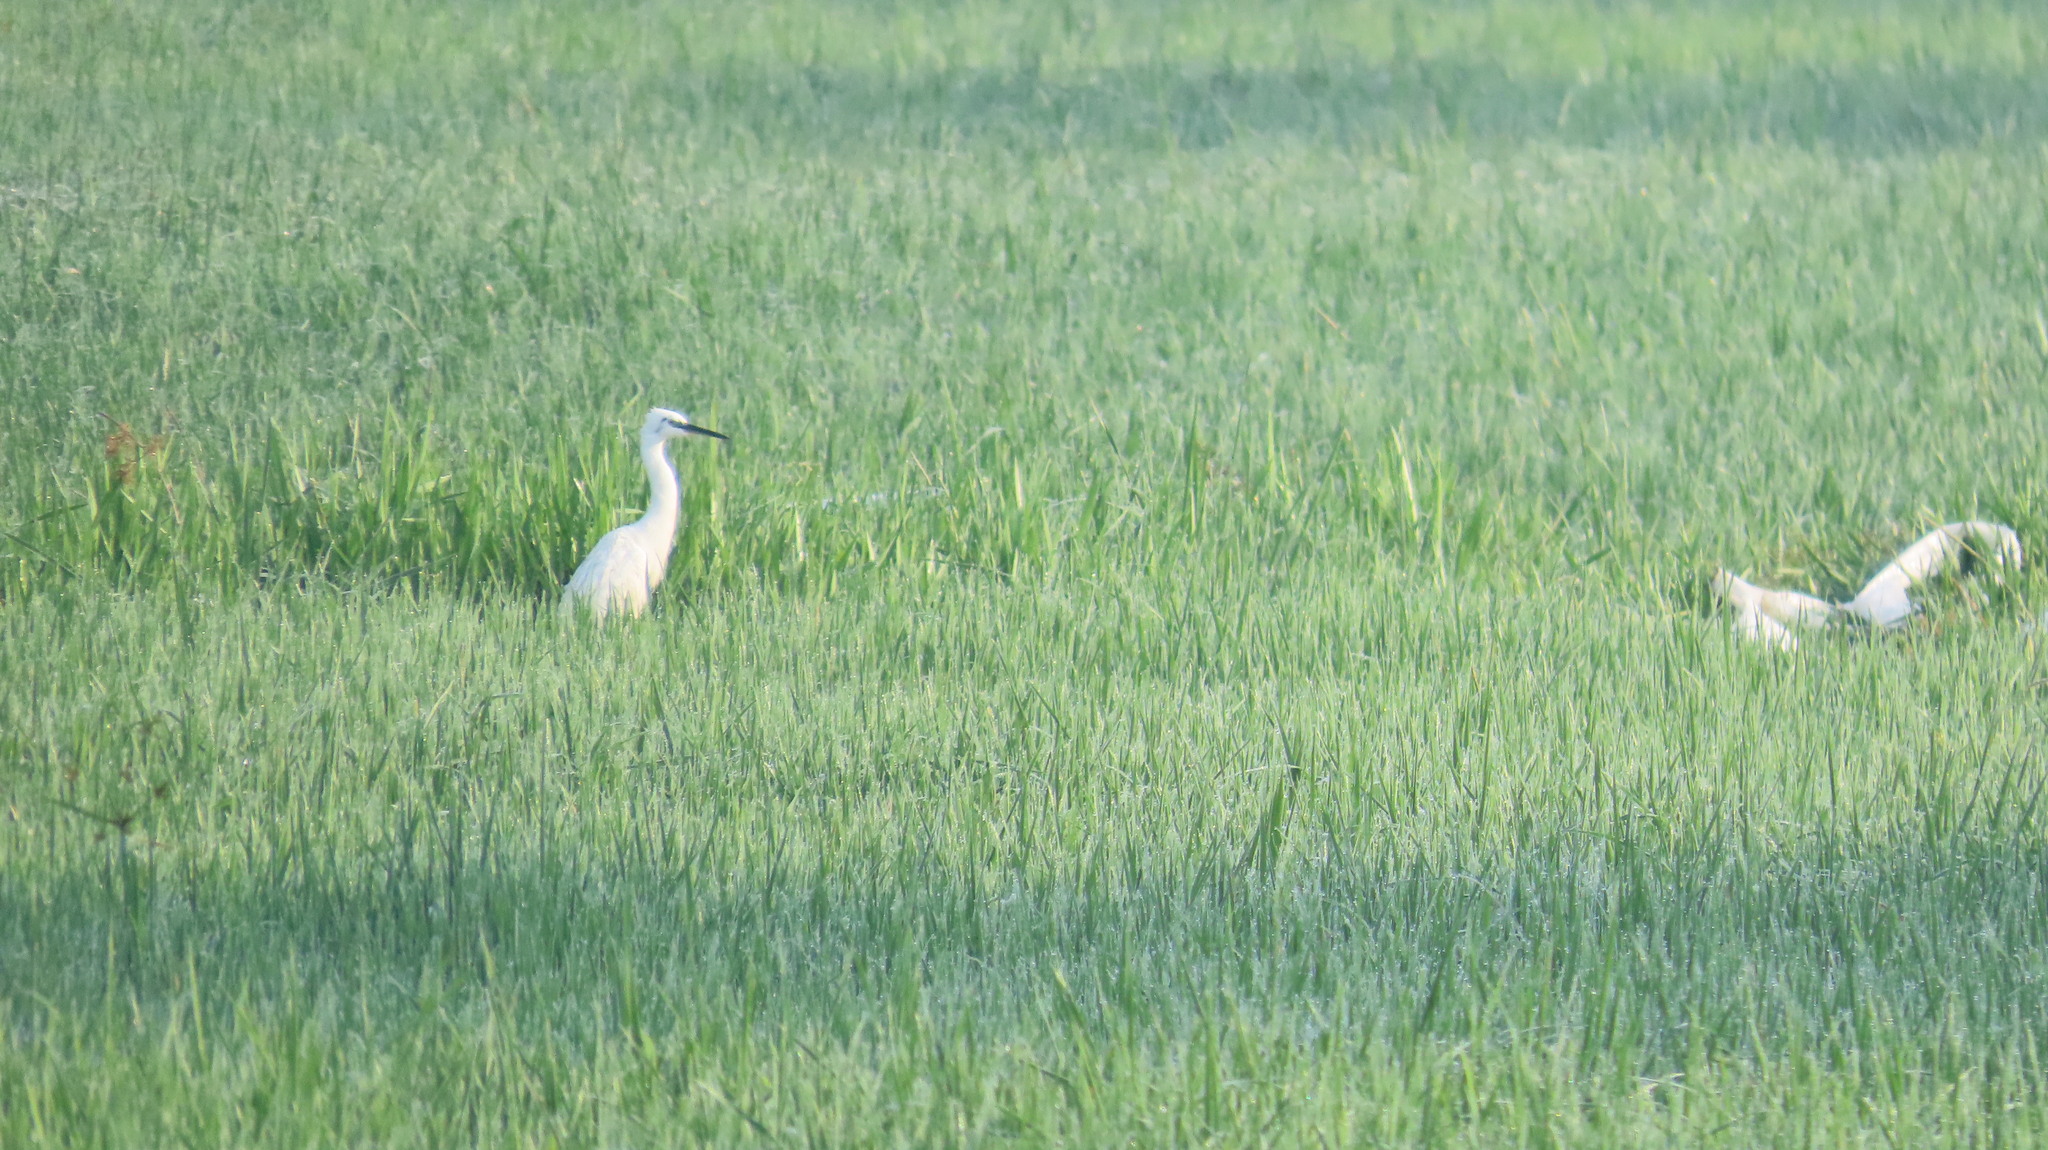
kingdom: Animalia
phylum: Chordata
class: Aves
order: Pelecaniformes
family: Ardeidae
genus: Egretta
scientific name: Egretta garzetta
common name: Little egret
